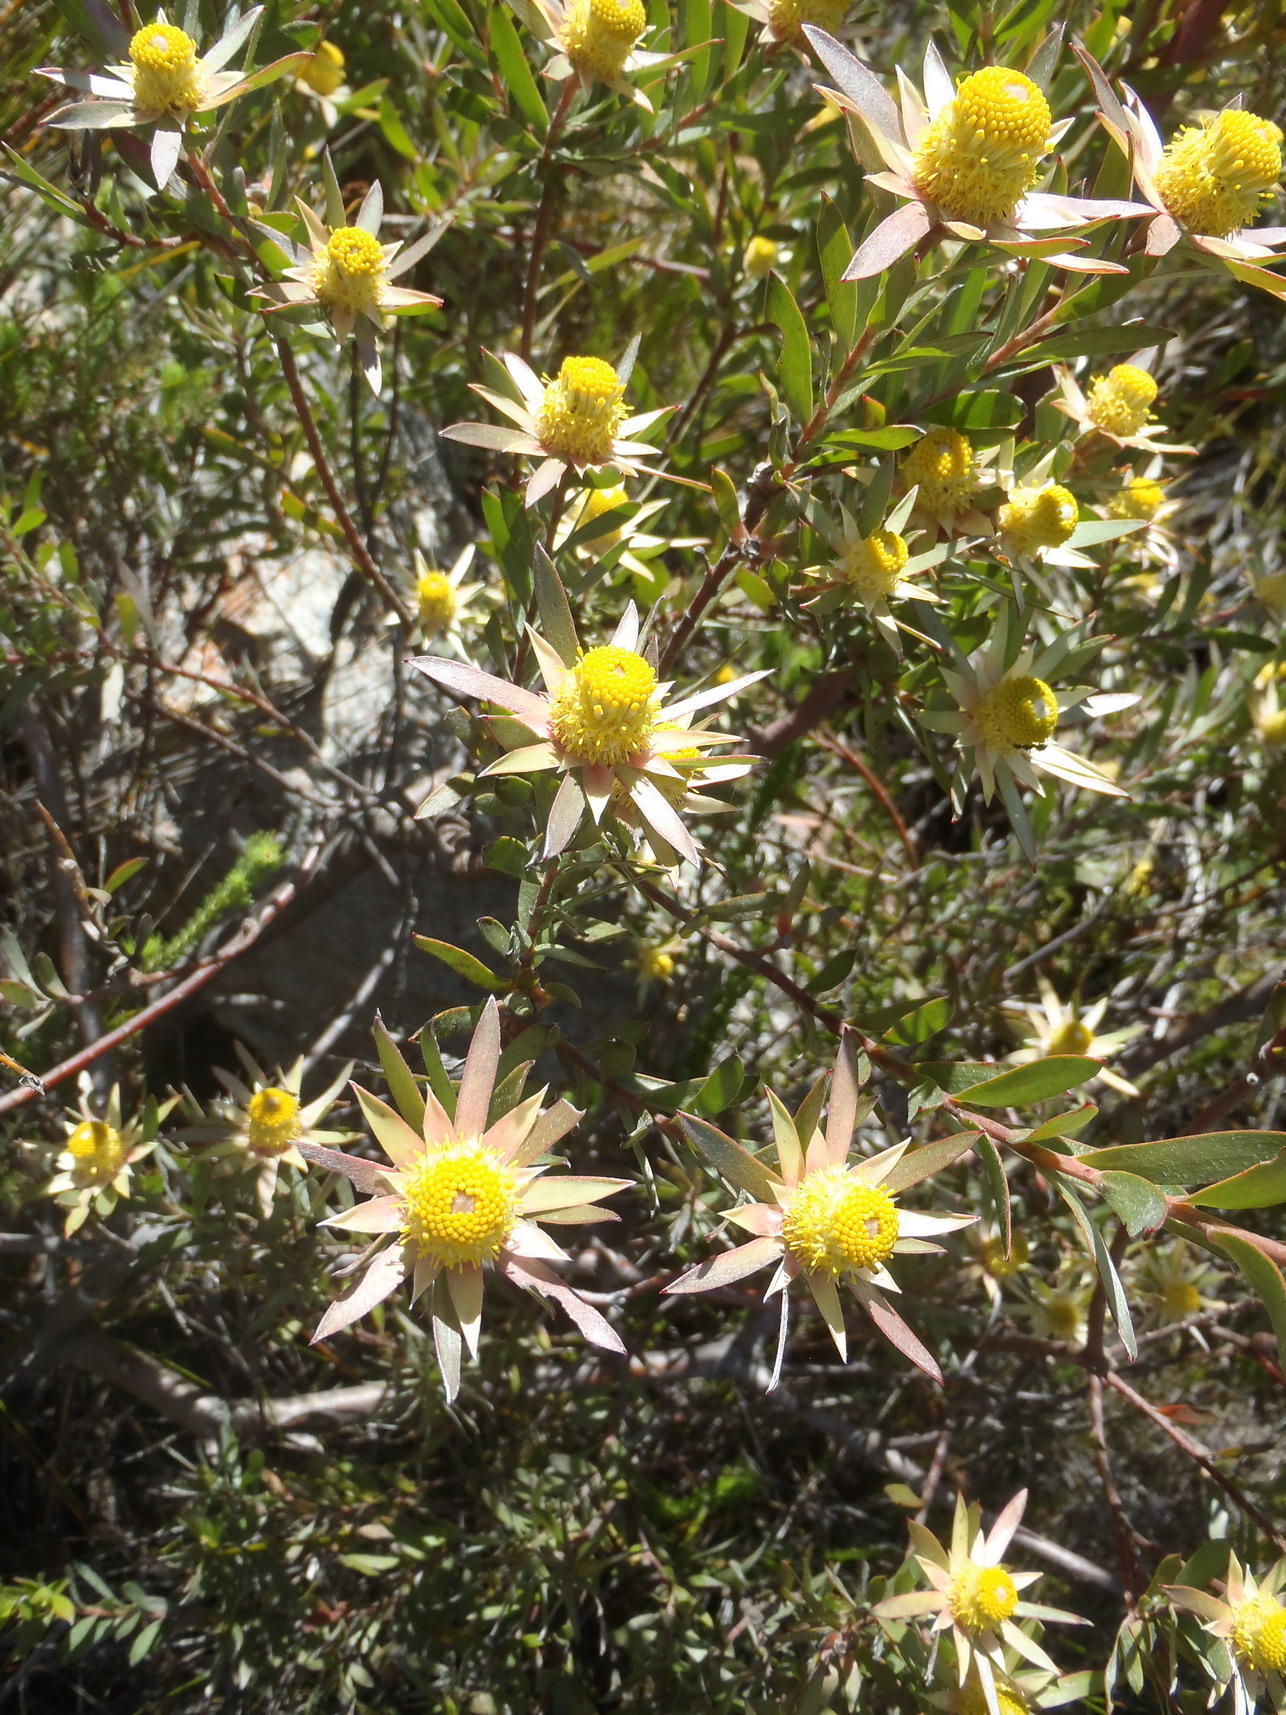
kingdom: Plantae
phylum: Tracheophyta
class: Magnoliopsida
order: Proteales
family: Proteaceae
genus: Leucadendron
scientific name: Leucadendron conicum
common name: Garden route conebush
